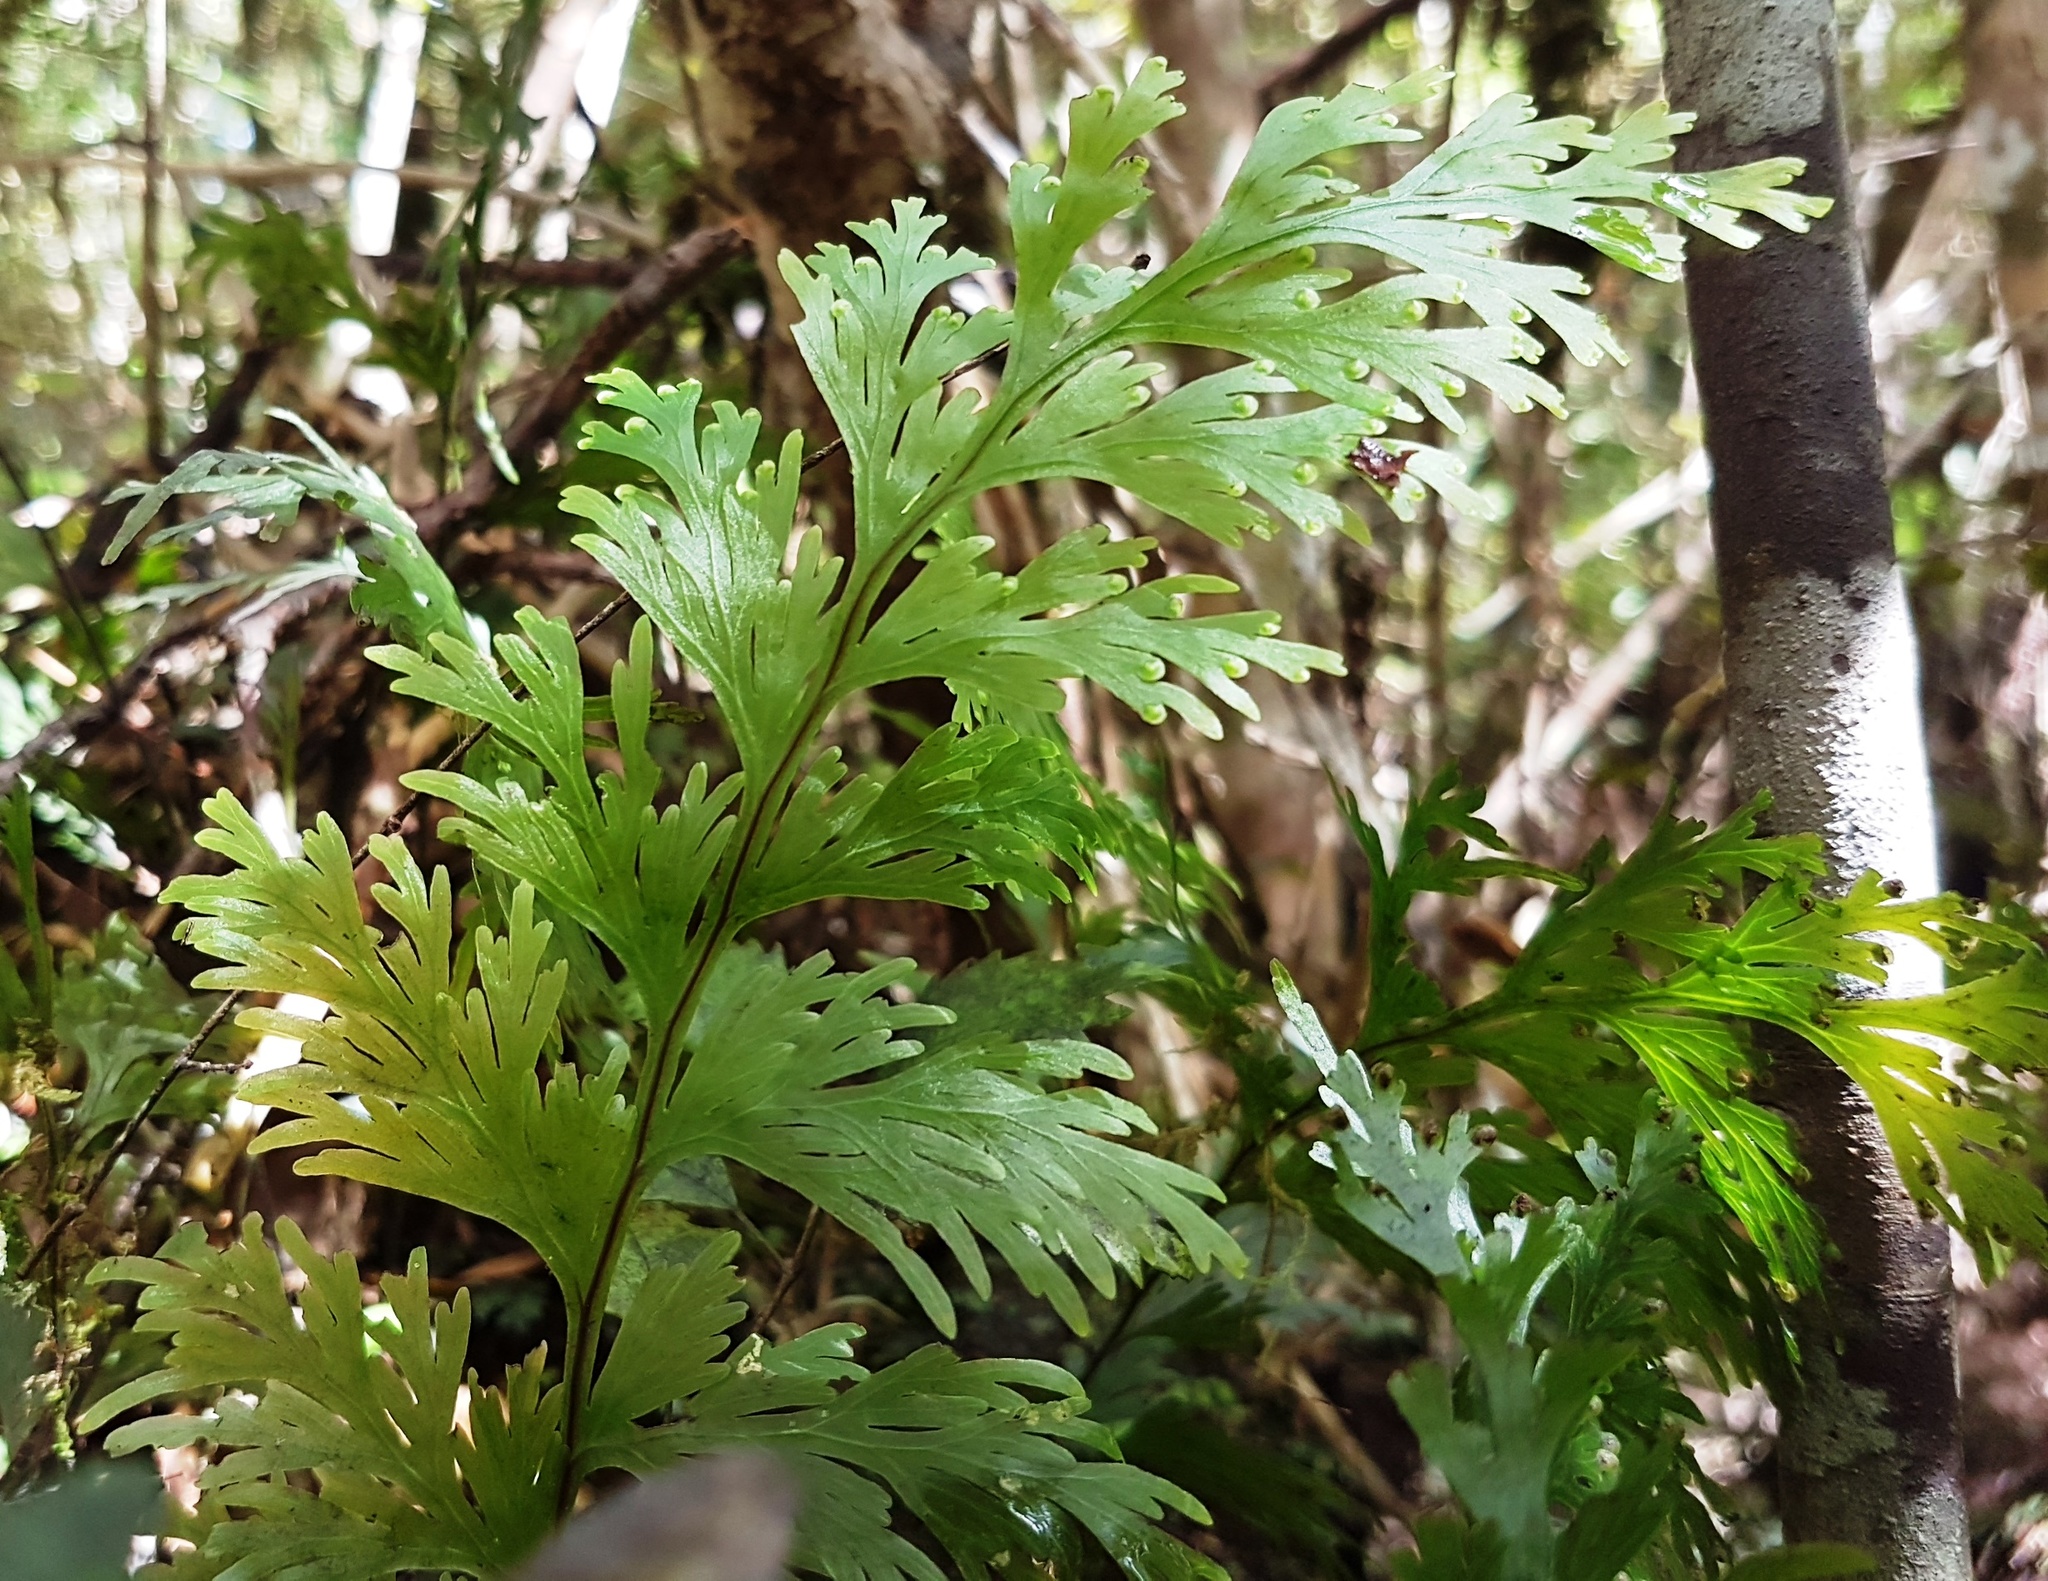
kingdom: Plantae
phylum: Tracheophyta
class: Polypodiopsida
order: Hymenophyllales
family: Hymenophyllaceae
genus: Hymenophyllum
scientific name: Hymenophyllum dilatatum
